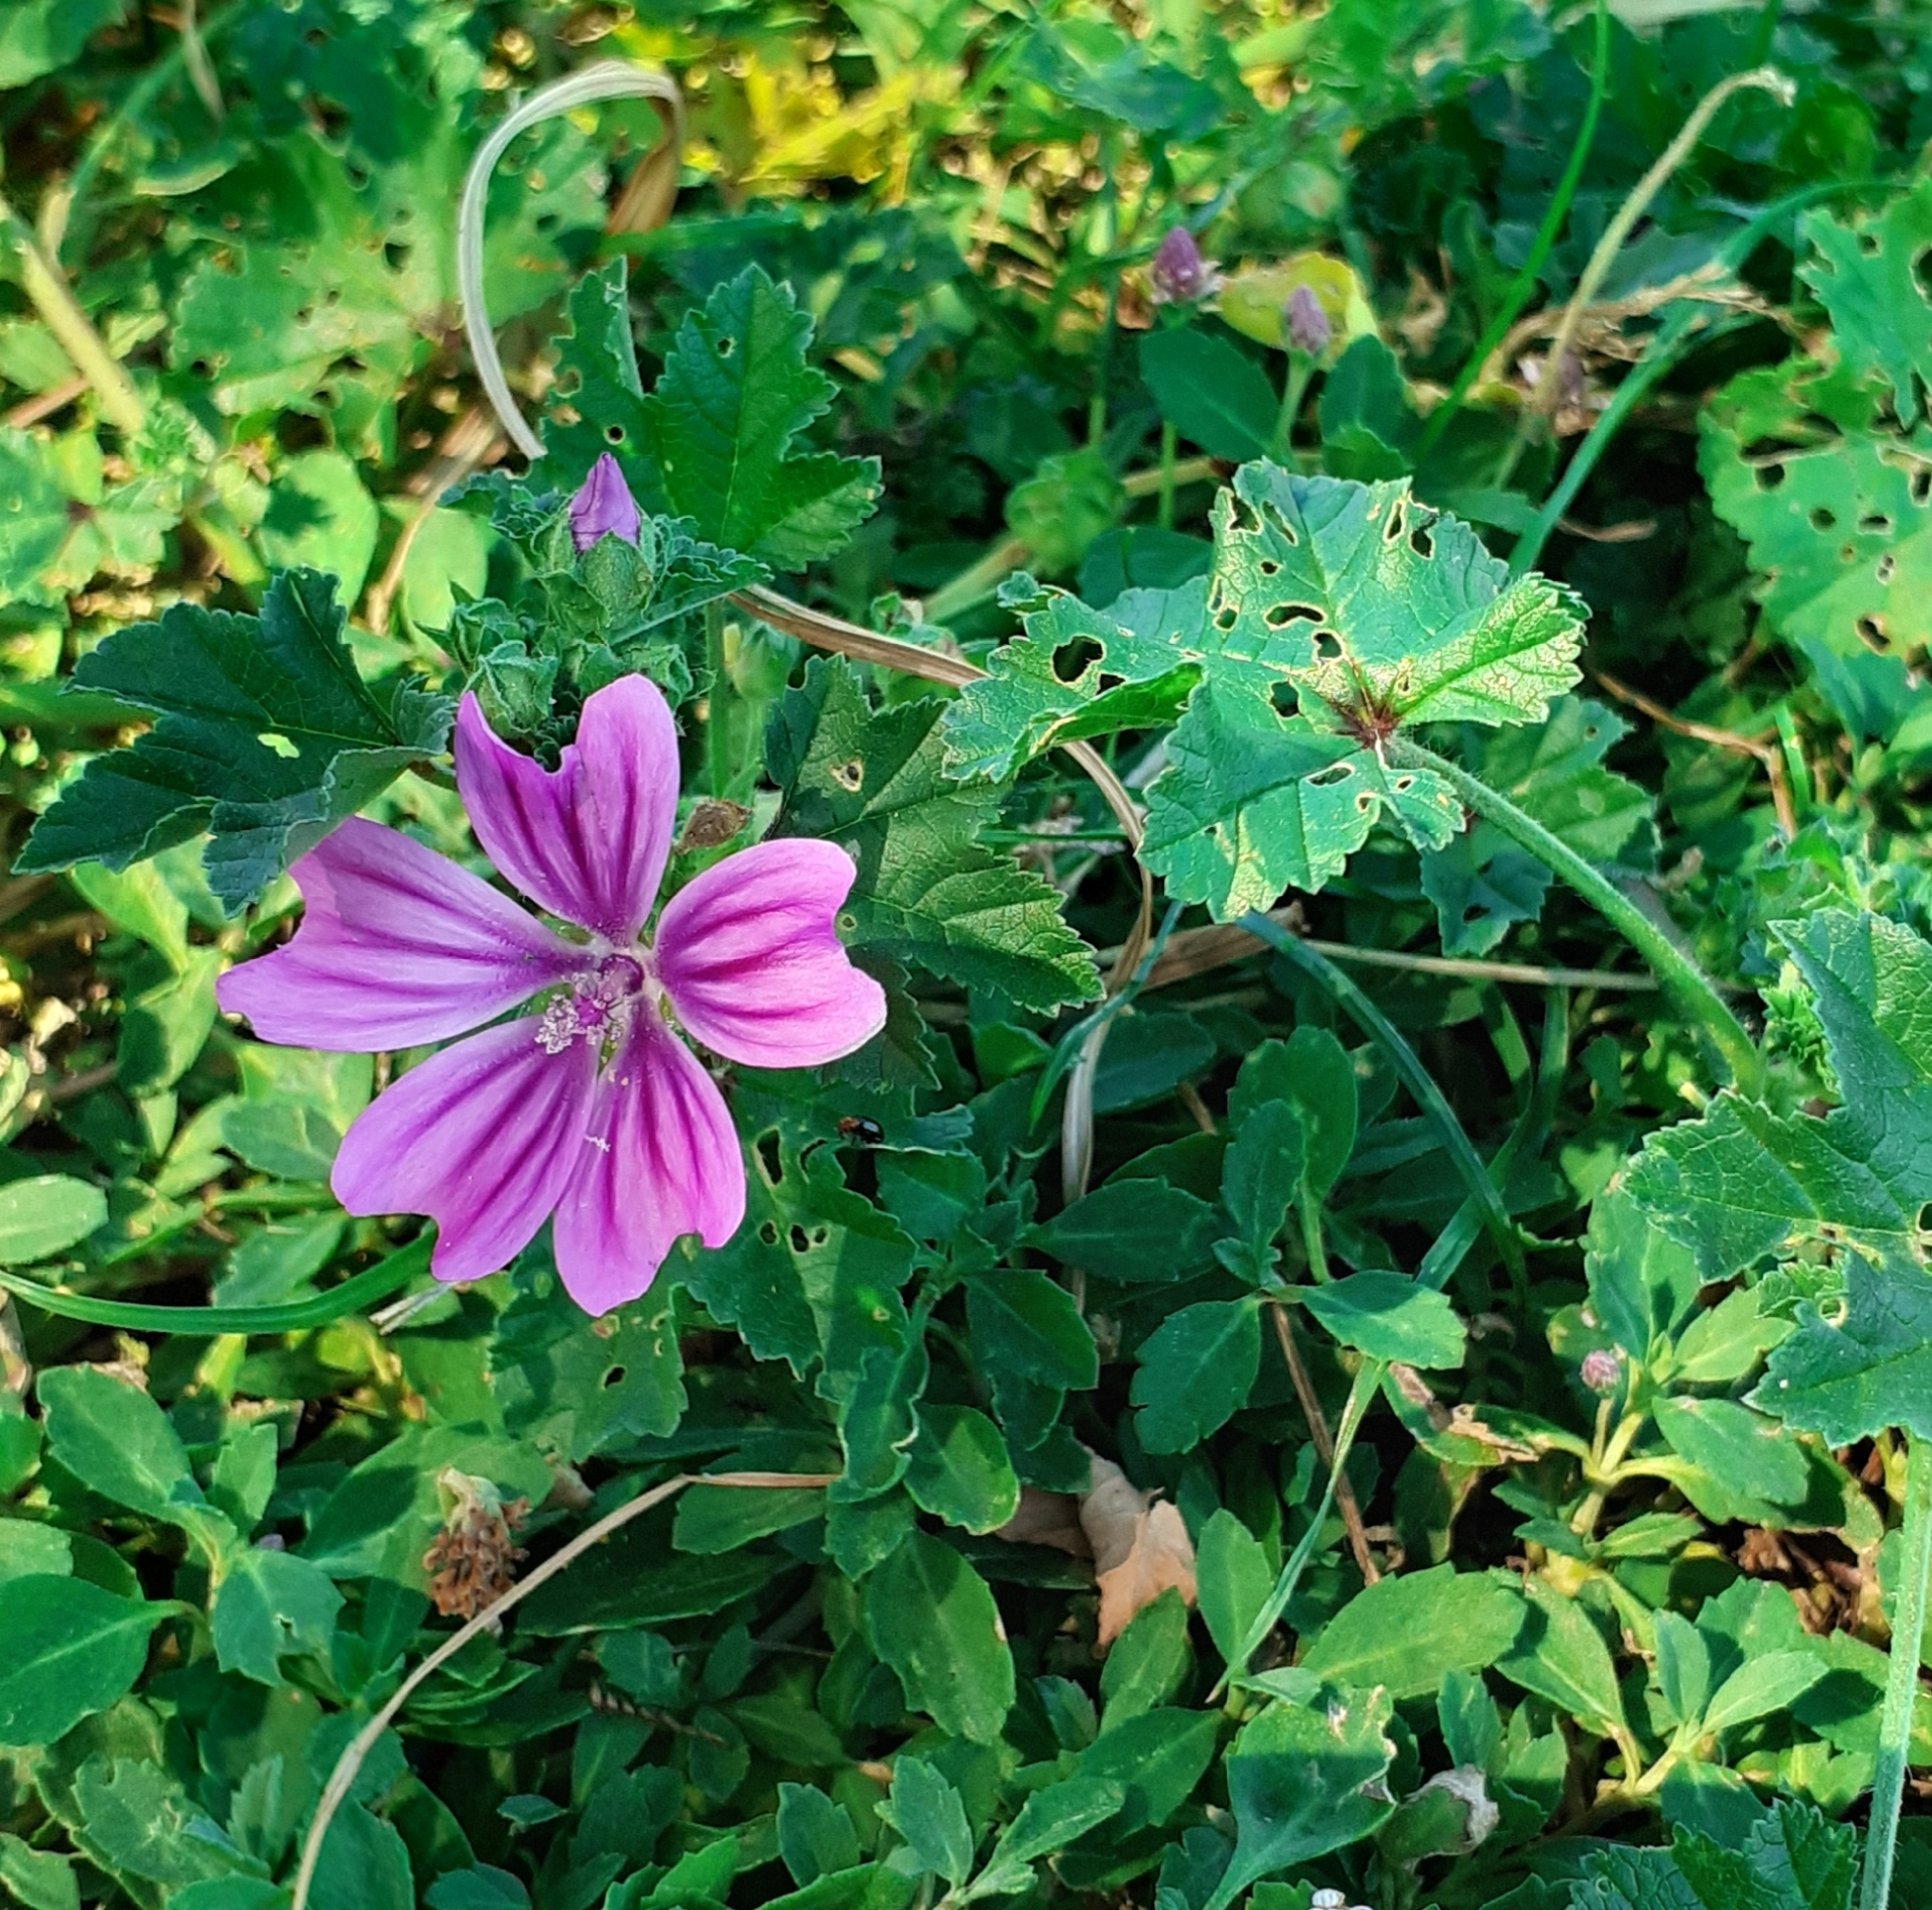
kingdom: Plantae
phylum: Tracheophyta
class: Magnoliopsida
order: Malvales
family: Malvaceae
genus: Malva
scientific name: Malva sylvestris
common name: Common mallow
